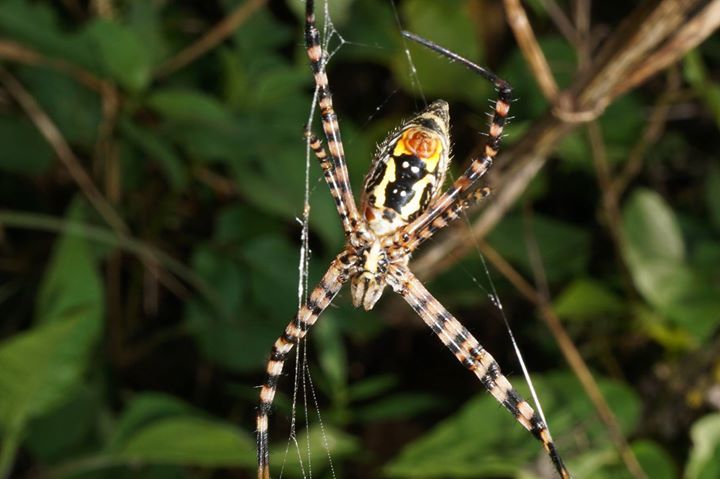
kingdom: Animalia
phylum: Arthropoda
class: Arachnida
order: Araneae
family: Araneidae
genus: Argiope
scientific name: Argiope trifasciata
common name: Banded garden spider
